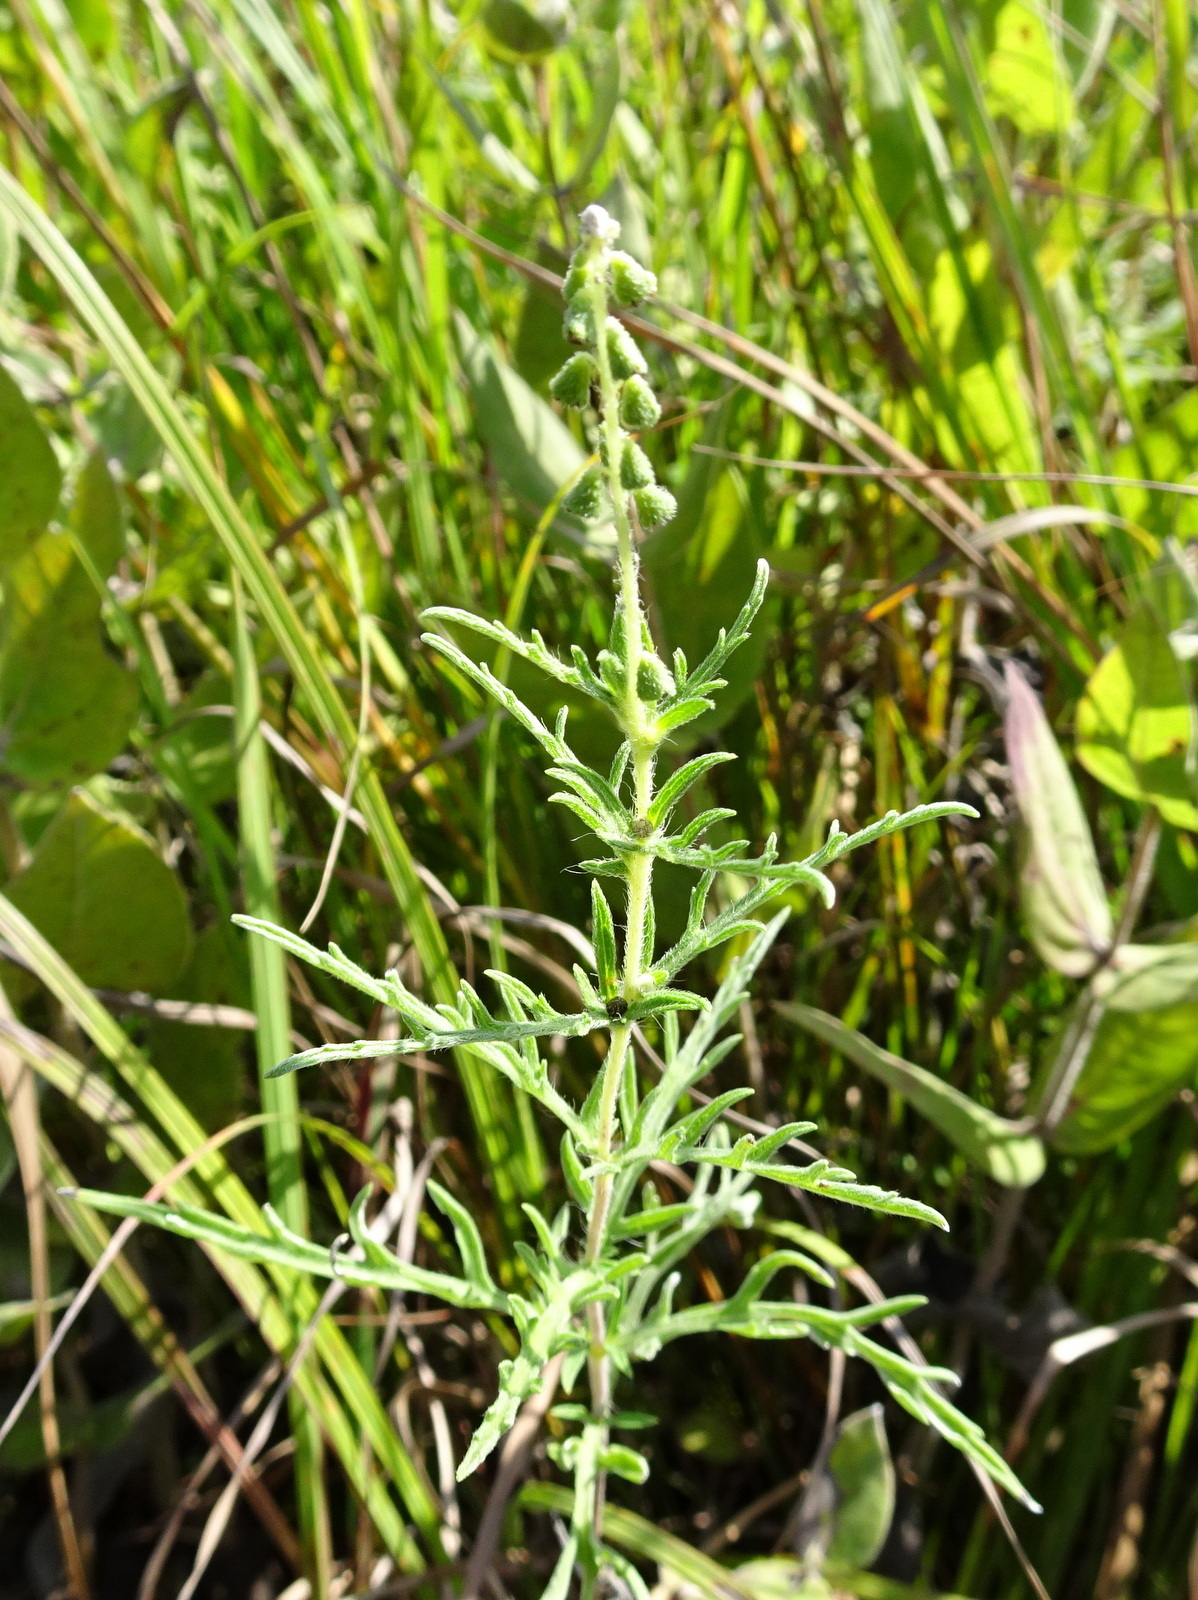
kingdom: Plantae
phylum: Tracheophyta
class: Magnoliopsida
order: Asterales
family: Asteraceae
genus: Ambrosia
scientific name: Ambrosia psilostachya
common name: Perennial ragweed
